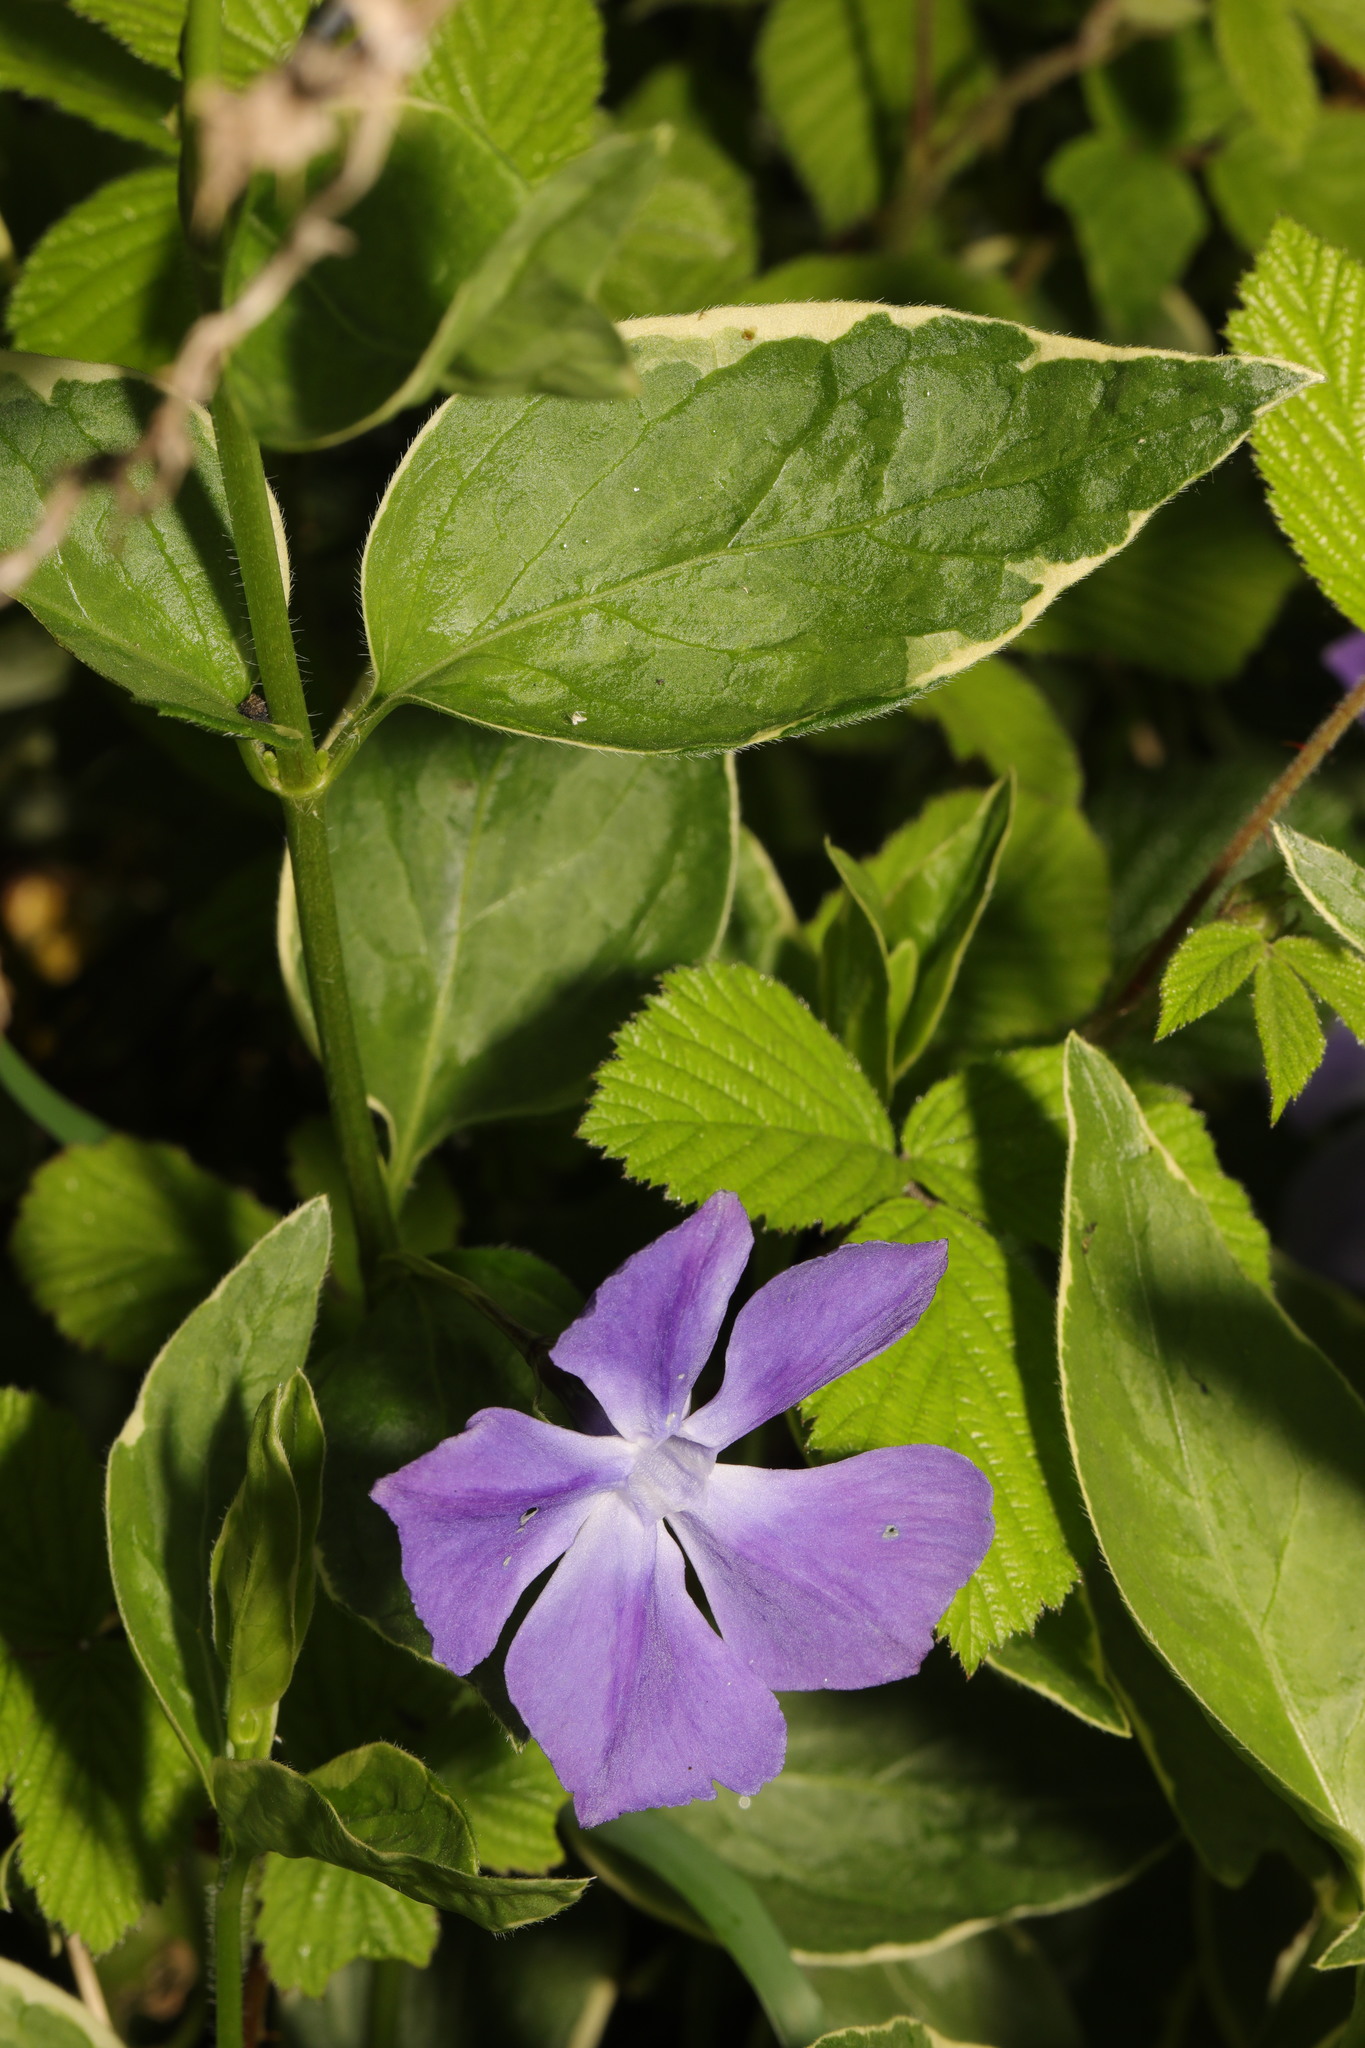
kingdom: Plantae
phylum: Tracheophyta
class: Magnoliopsida
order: Gentianales
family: Apocynaceae
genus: Vinca
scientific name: Vinca major
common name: Greater periwinkle
